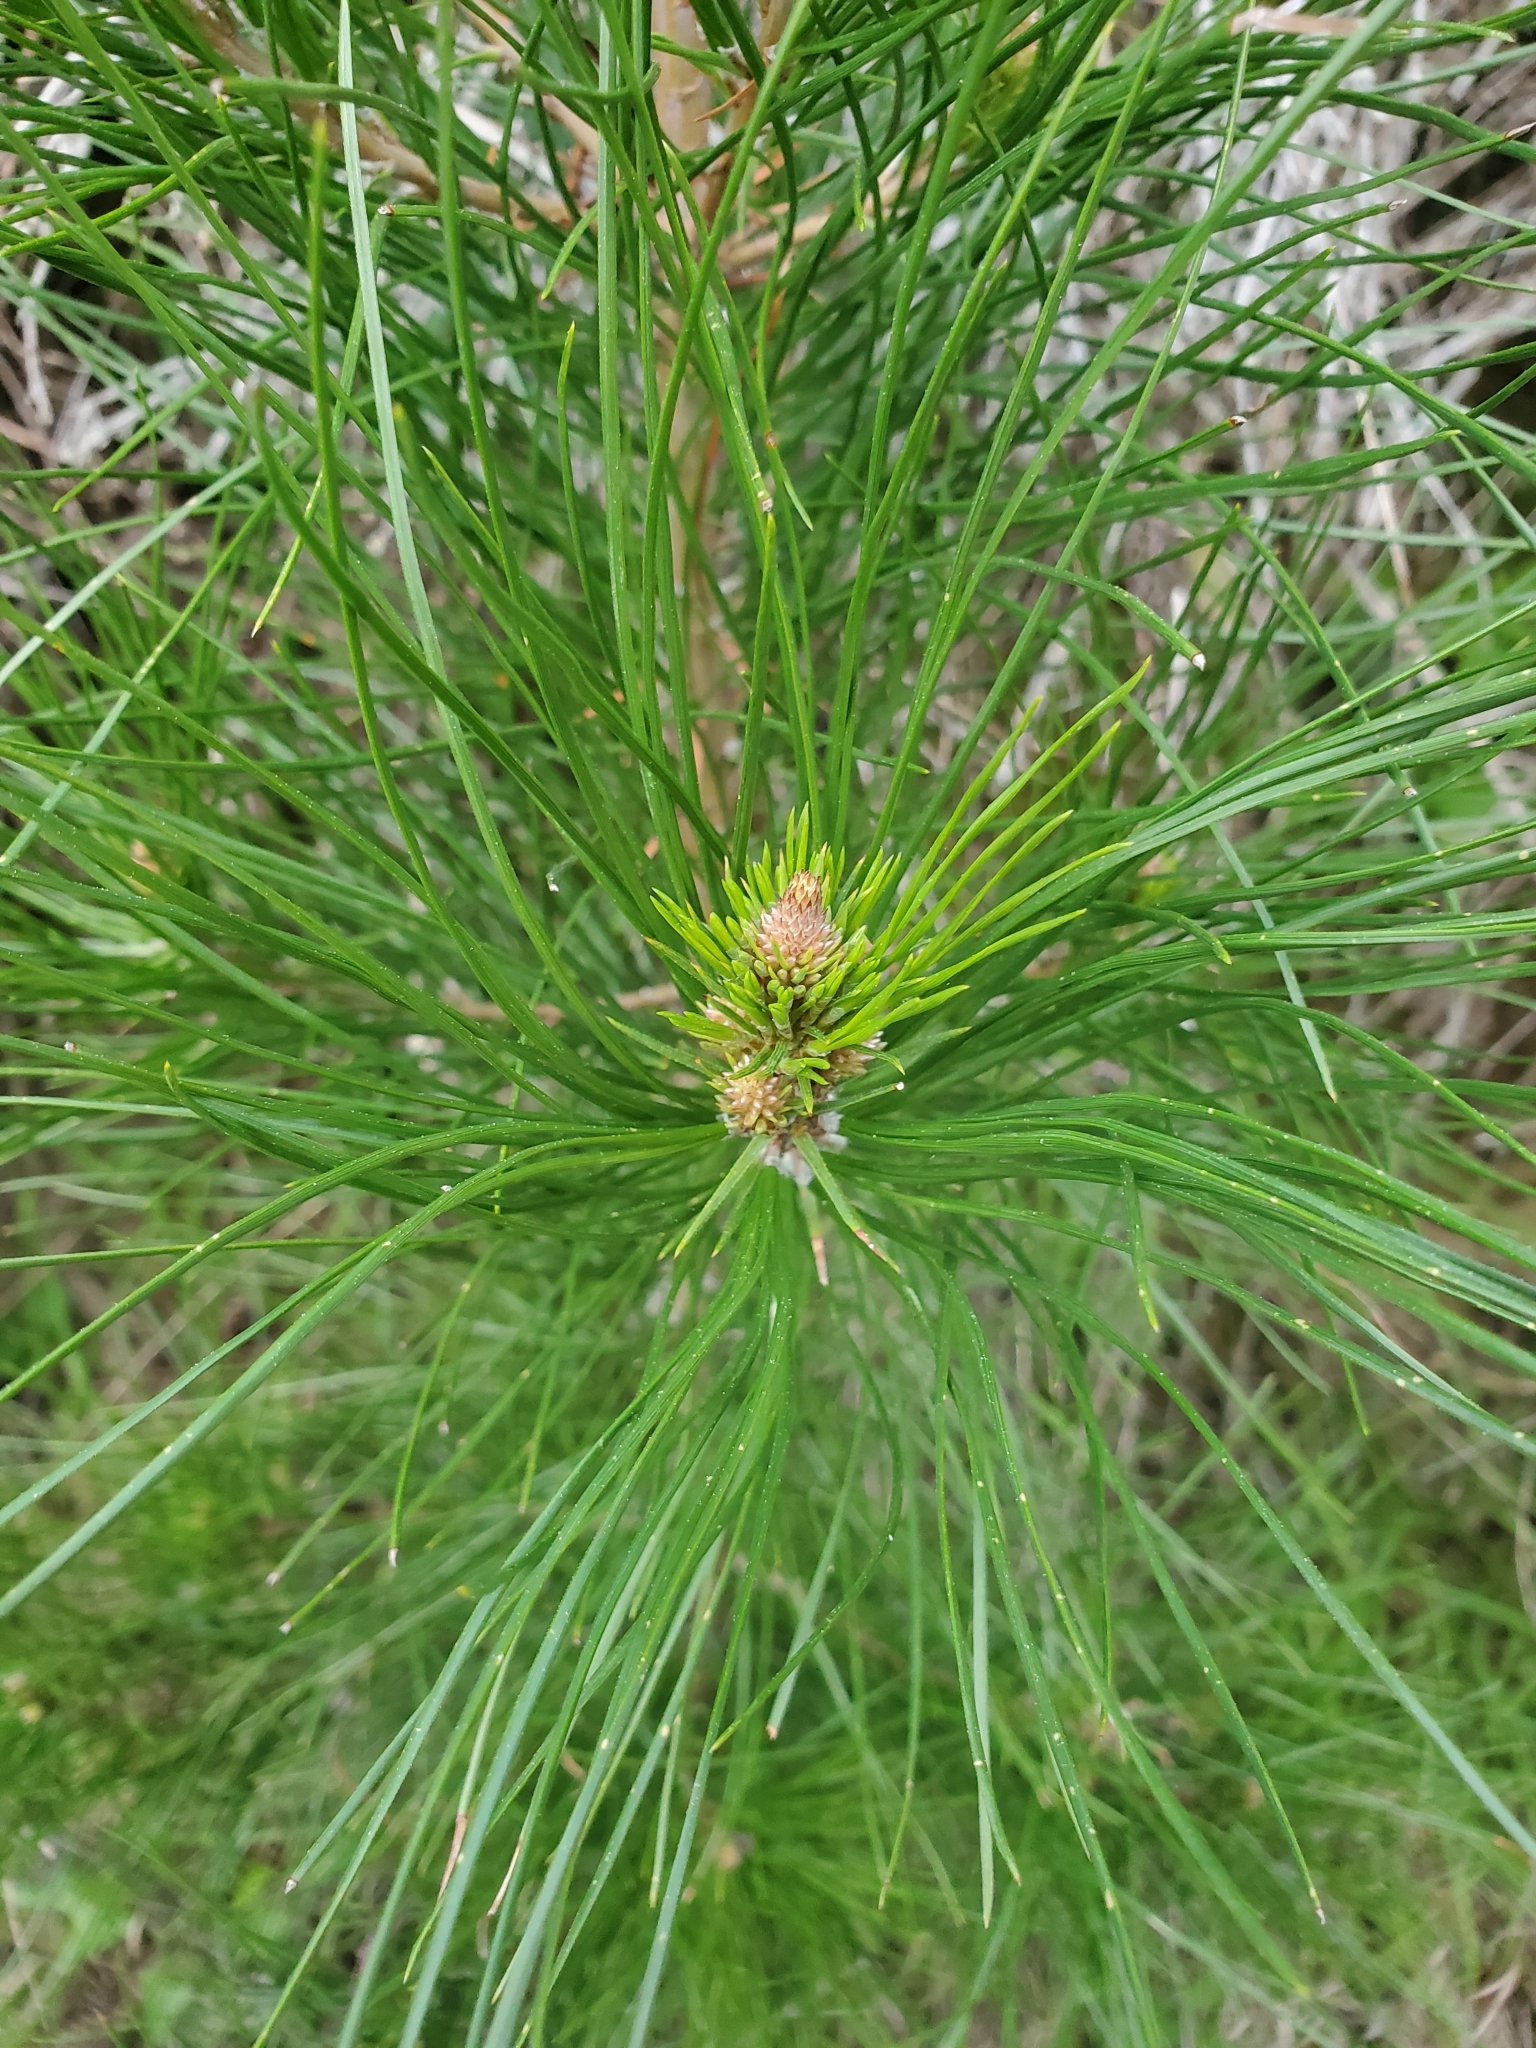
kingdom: Plantae
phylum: Tracheophyta
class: Pinopsida
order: Pinales
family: Pinaceae
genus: Pinus
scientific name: Pinus radiata
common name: Monterey pine
